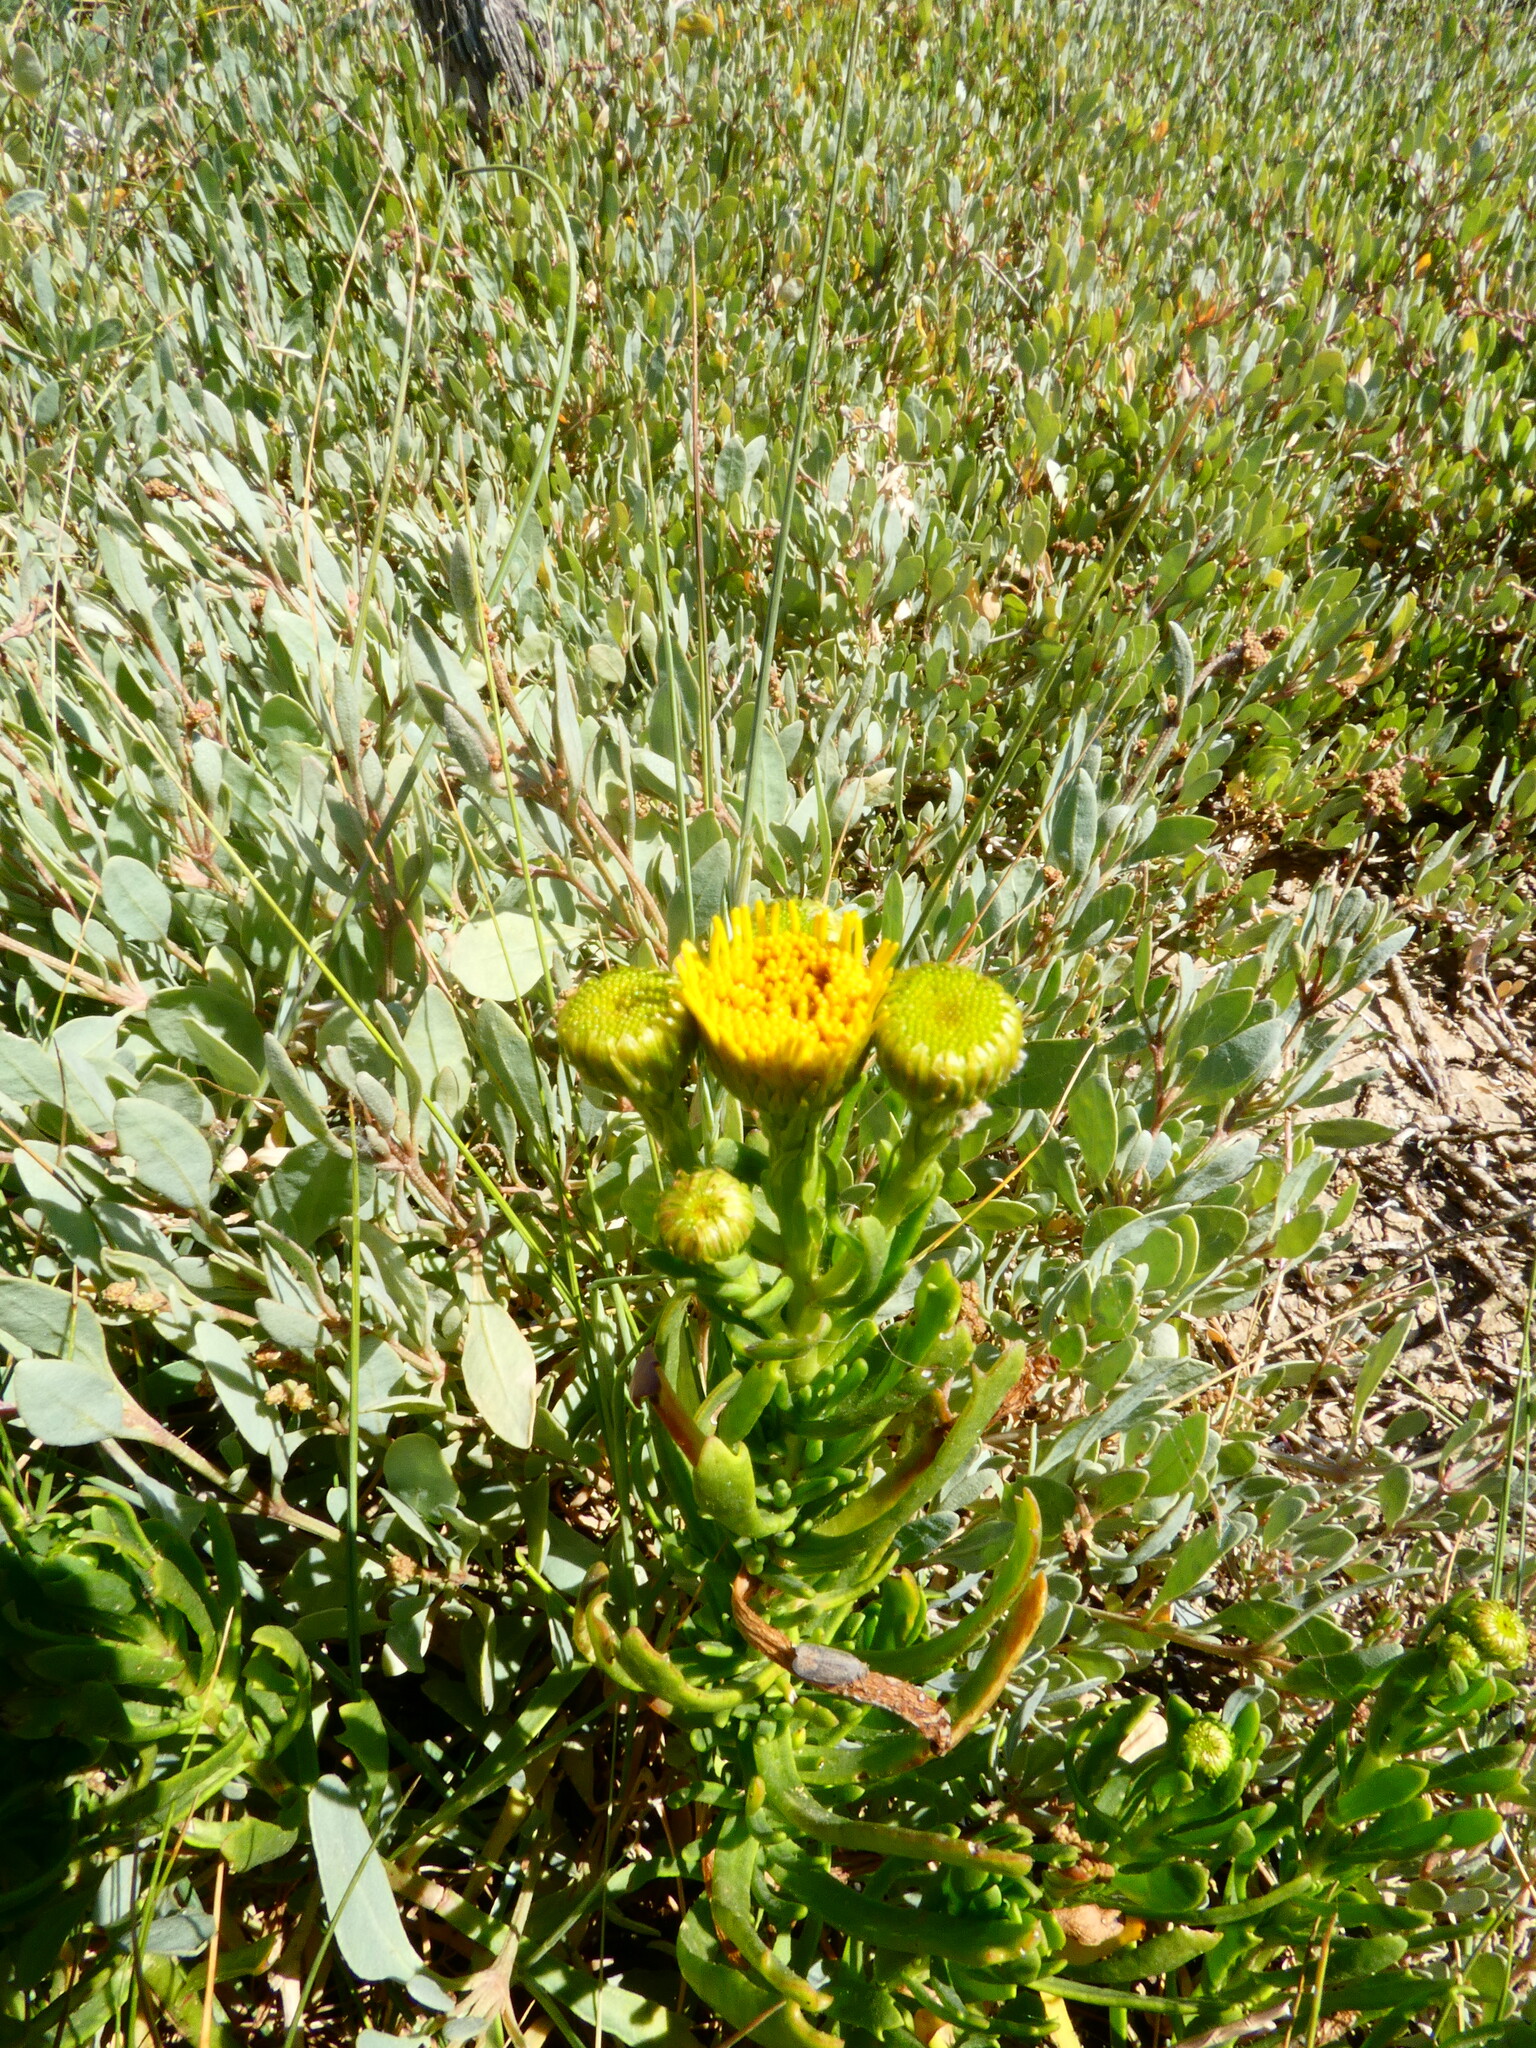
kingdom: Plantae
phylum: Tracheophyta
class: Magnoliopsida
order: Asterales
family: Asteraceae
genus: Limbarda
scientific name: Limbarda crithmoides
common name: Golden samphire
